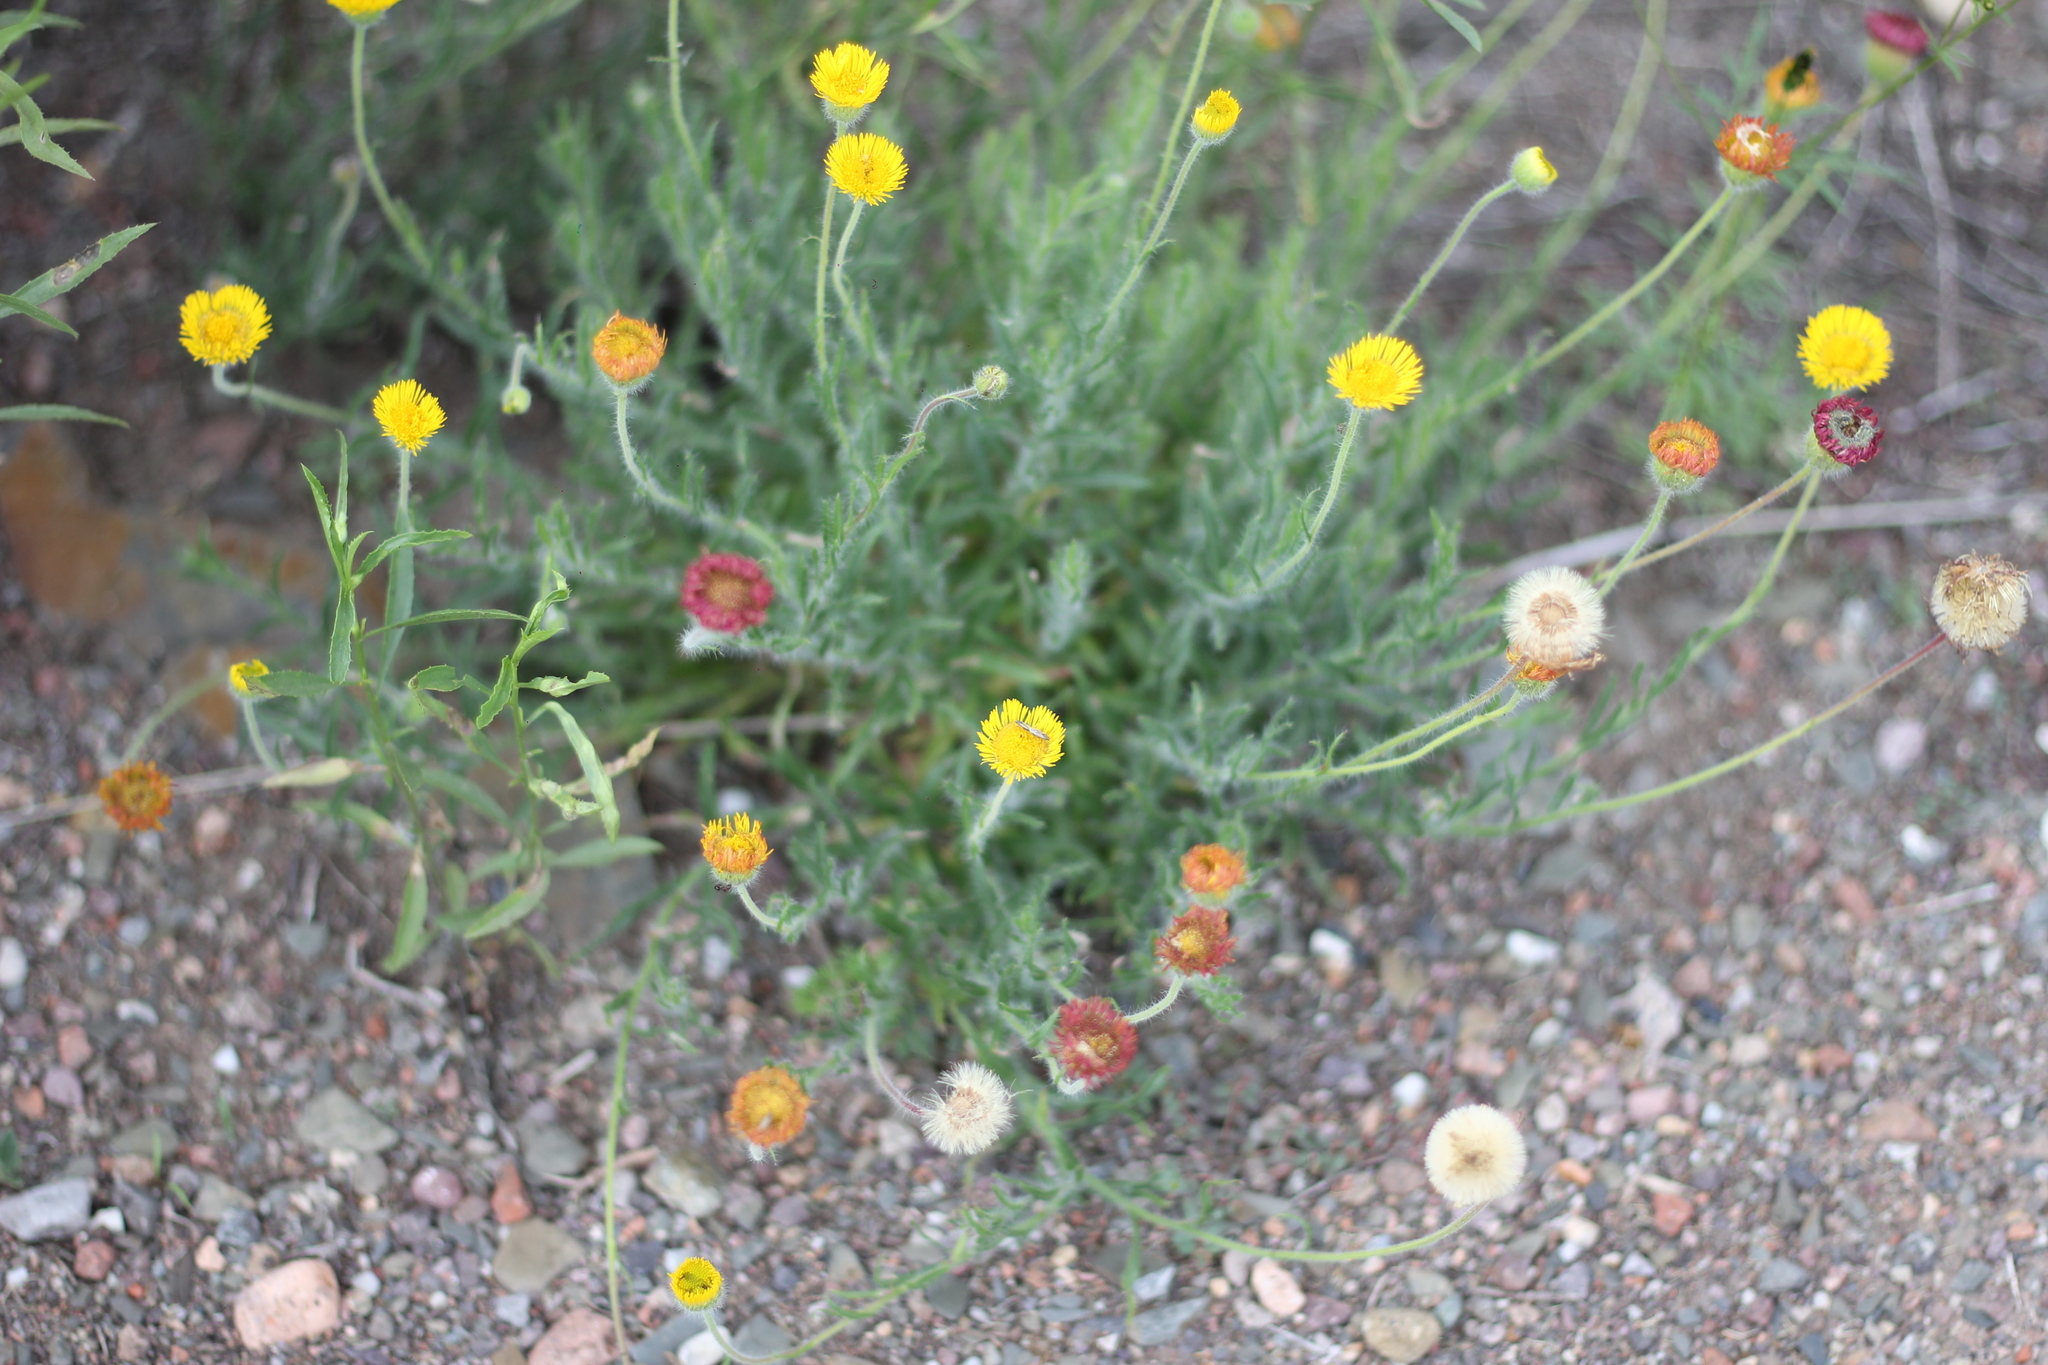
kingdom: Plantae
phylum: Tracheophyta
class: Magnoliopsida
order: Asterales
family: Asteraceae
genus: Hysterionica
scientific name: Hysterionica jasionoides
